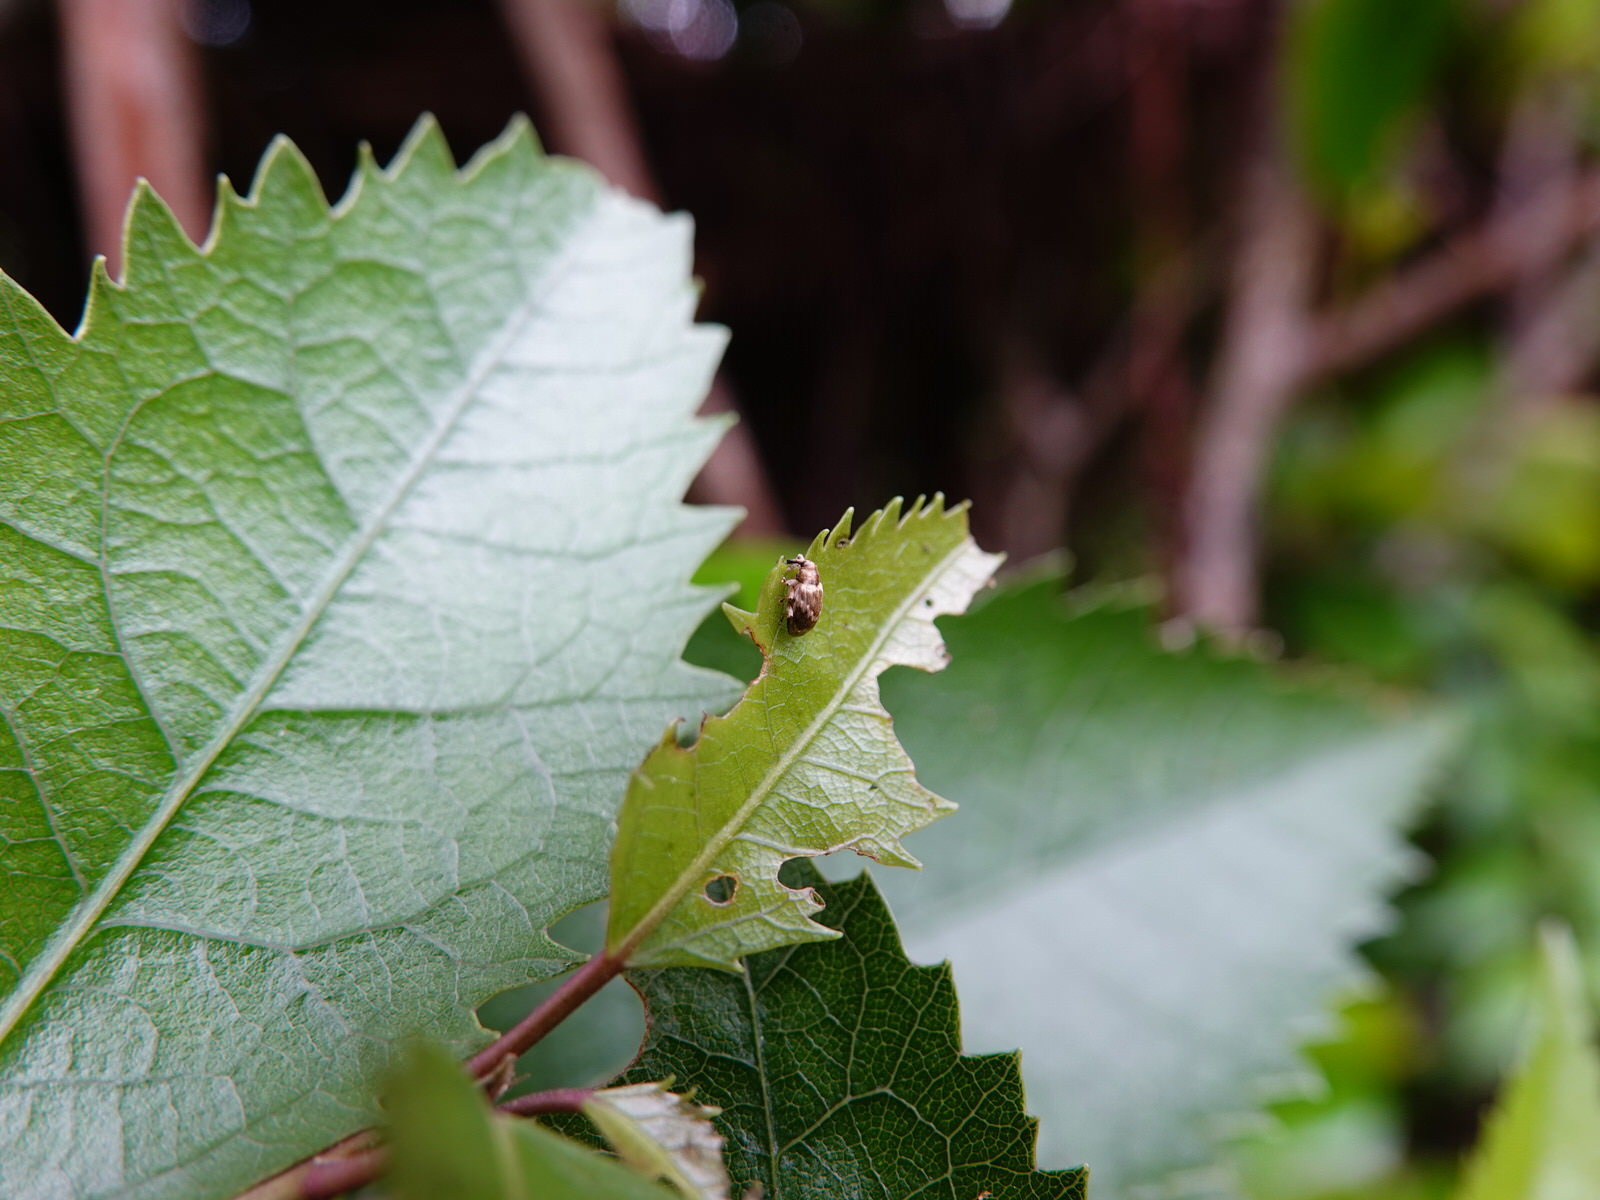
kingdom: Animalia
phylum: Arthropoda
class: Insecta
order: Coleoptera
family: Curculionidae
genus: Aneuma
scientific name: Aneuma compta
